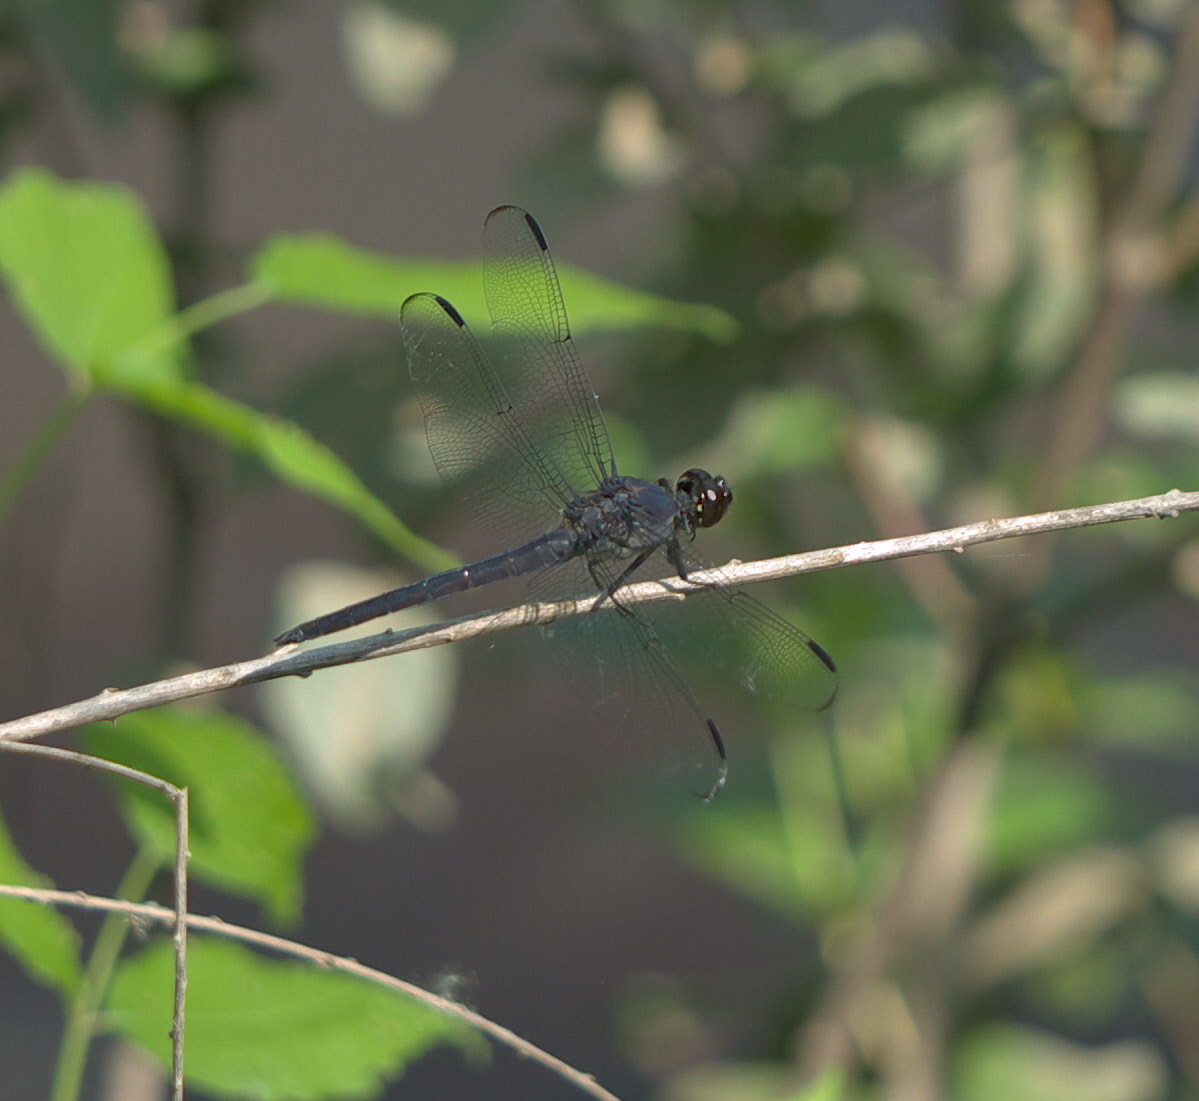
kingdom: Animalia
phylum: Arthropoda
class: Insecta
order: Odonata
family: Libellulidae
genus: Libellula
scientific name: Libellula incesta
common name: Slaty skimmer
